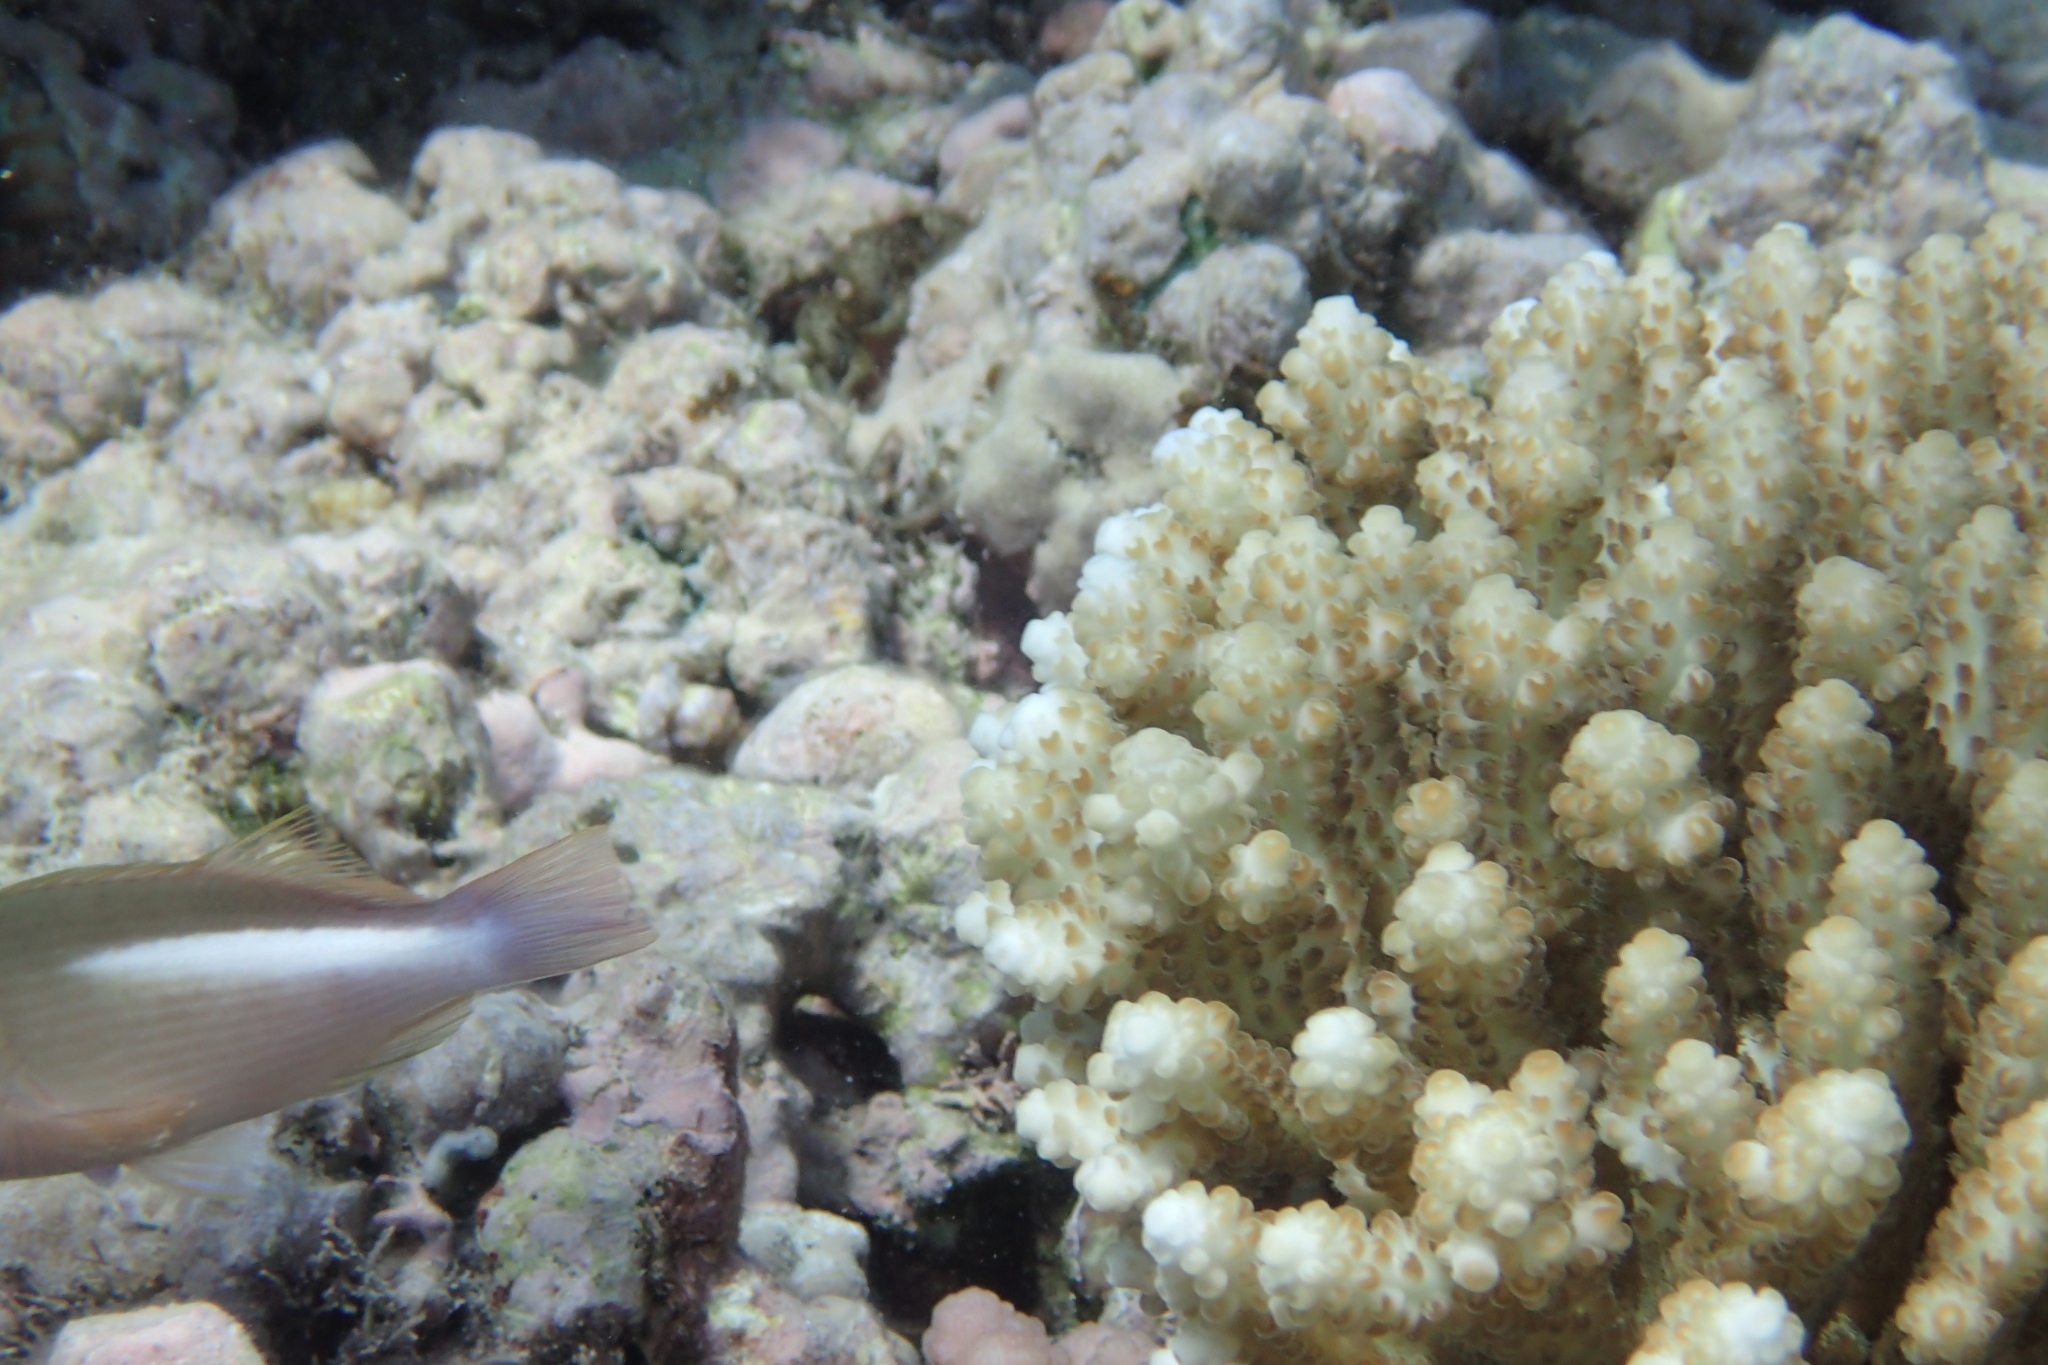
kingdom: Animalia
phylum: Chordata
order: Perciformes
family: Cirrhitidae
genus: Paracirrhites
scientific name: Paracirrhites arcatus
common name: Arc-eye hawkfish
